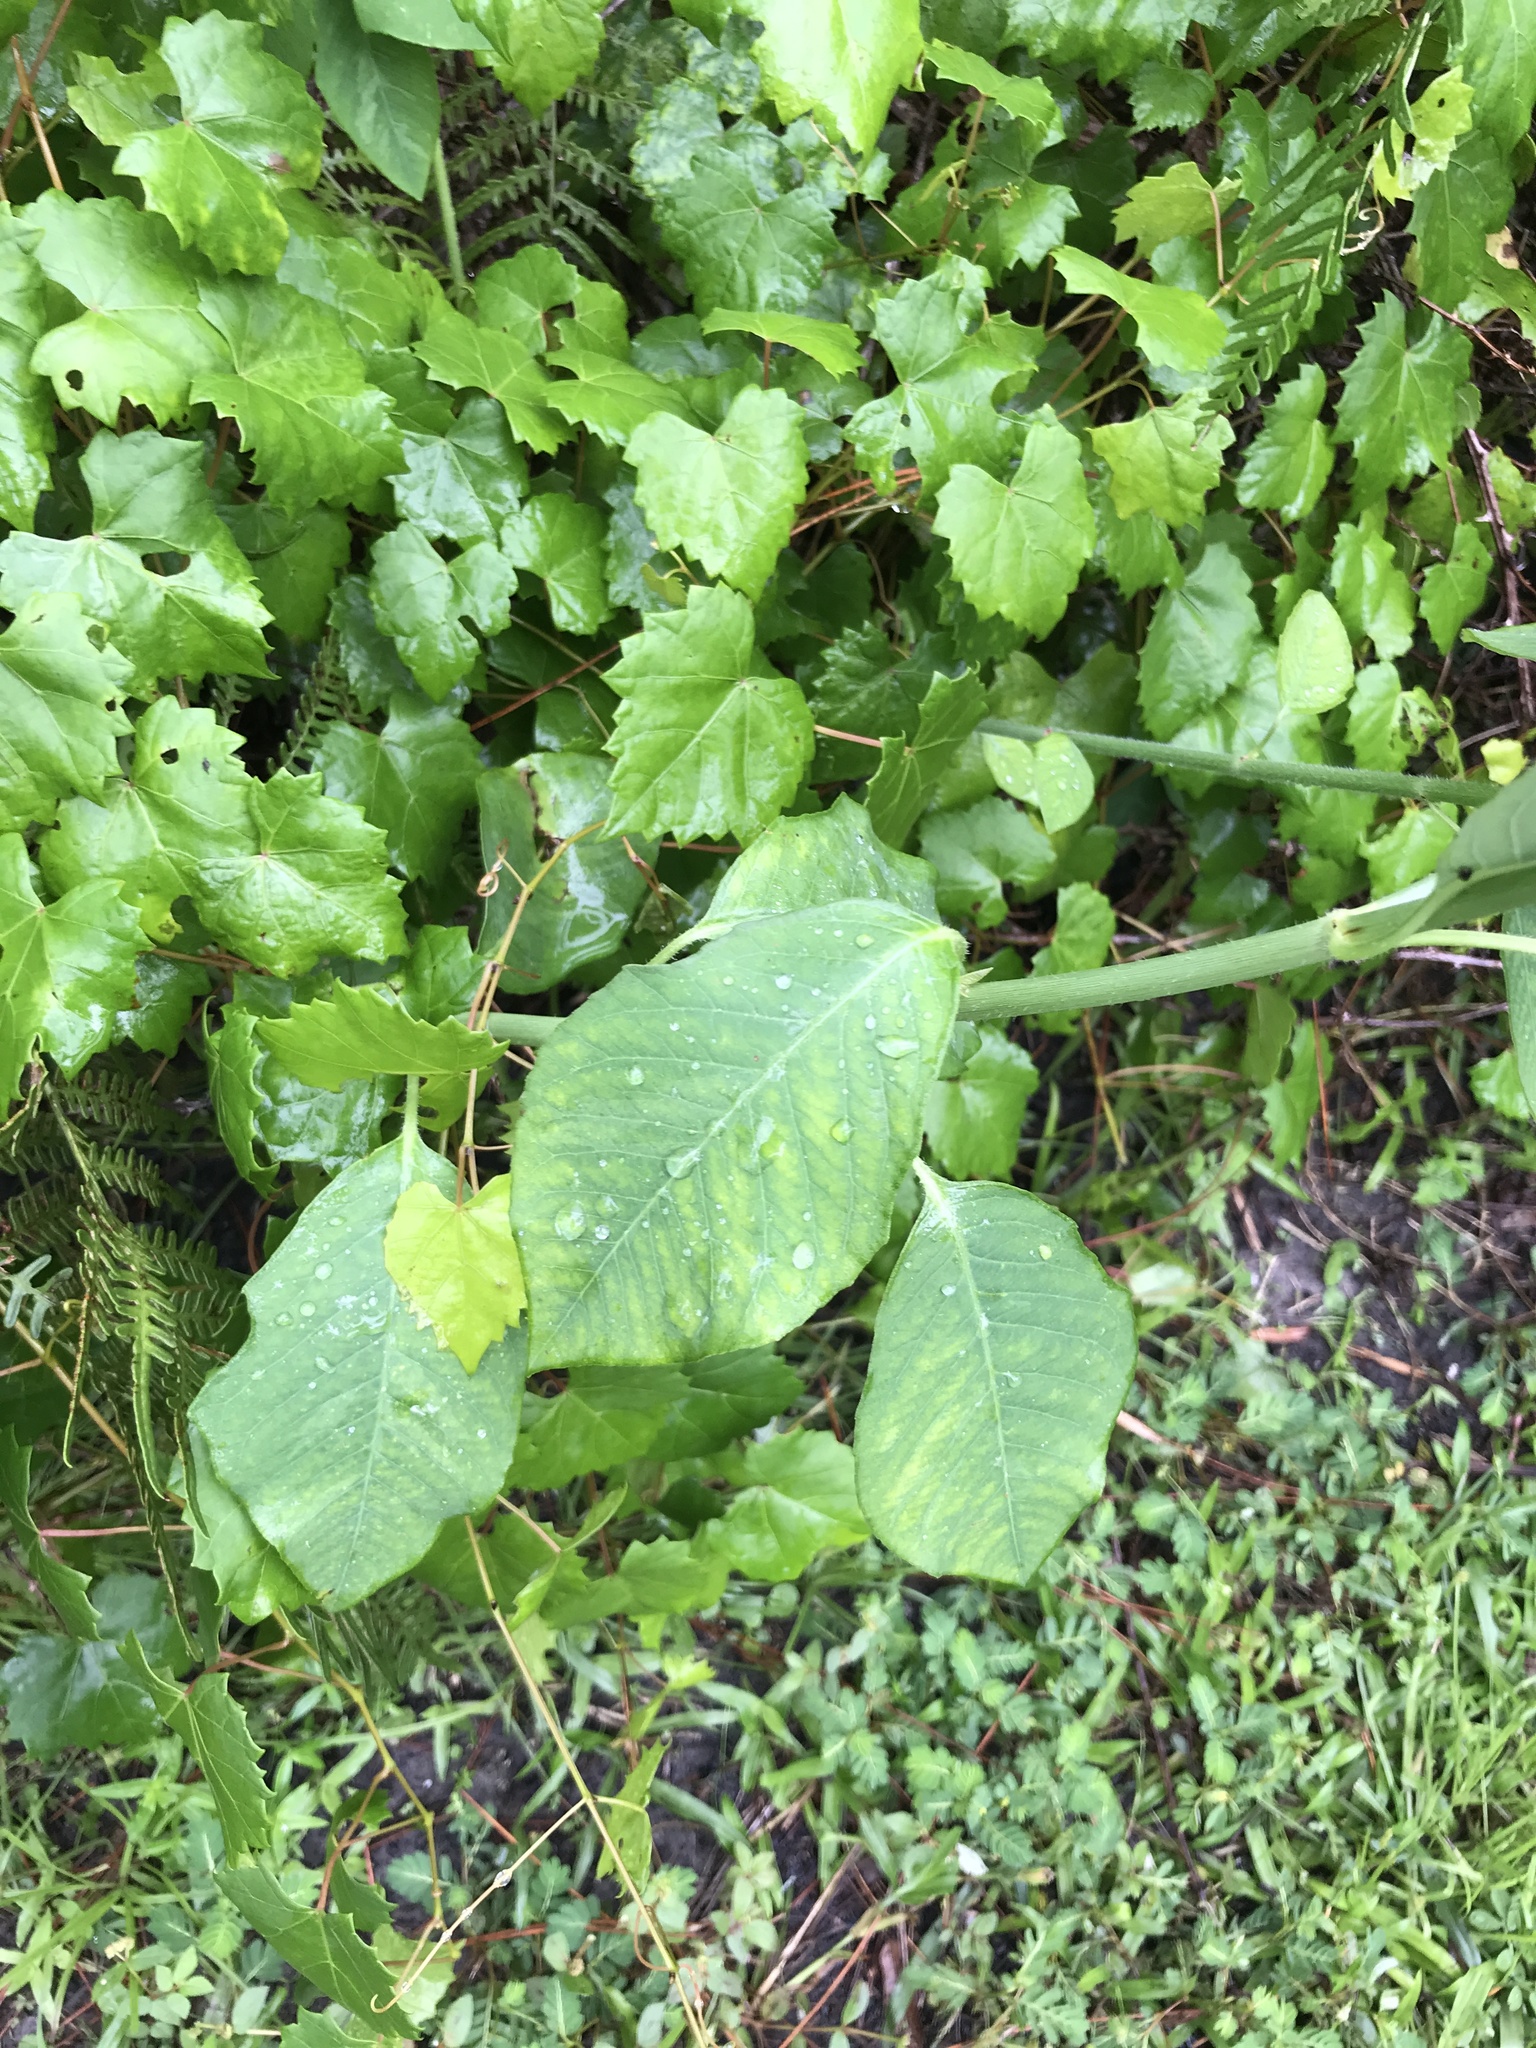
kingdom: Plantae
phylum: Tracheophyta
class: Magnoliopsida
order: Malpighiales
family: Euphorbiaceae
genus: Euphorbia
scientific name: Euphorbia heterophylla
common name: Mexican fireplant
